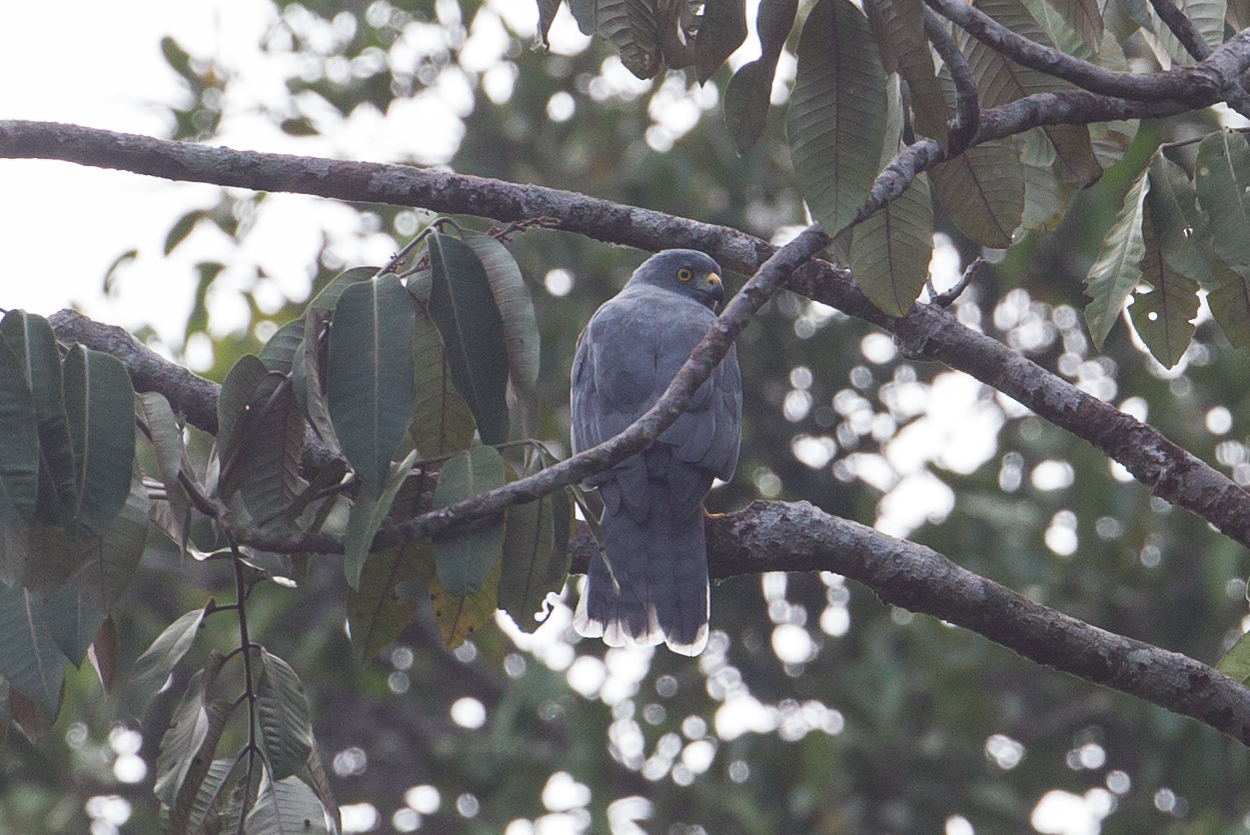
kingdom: Animalia
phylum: Chordata
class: Aves
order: Accipitriformes
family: Accipitridae
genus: Accipiter
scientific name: Accipiter henicogrammus
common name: Moluccan goshawk
